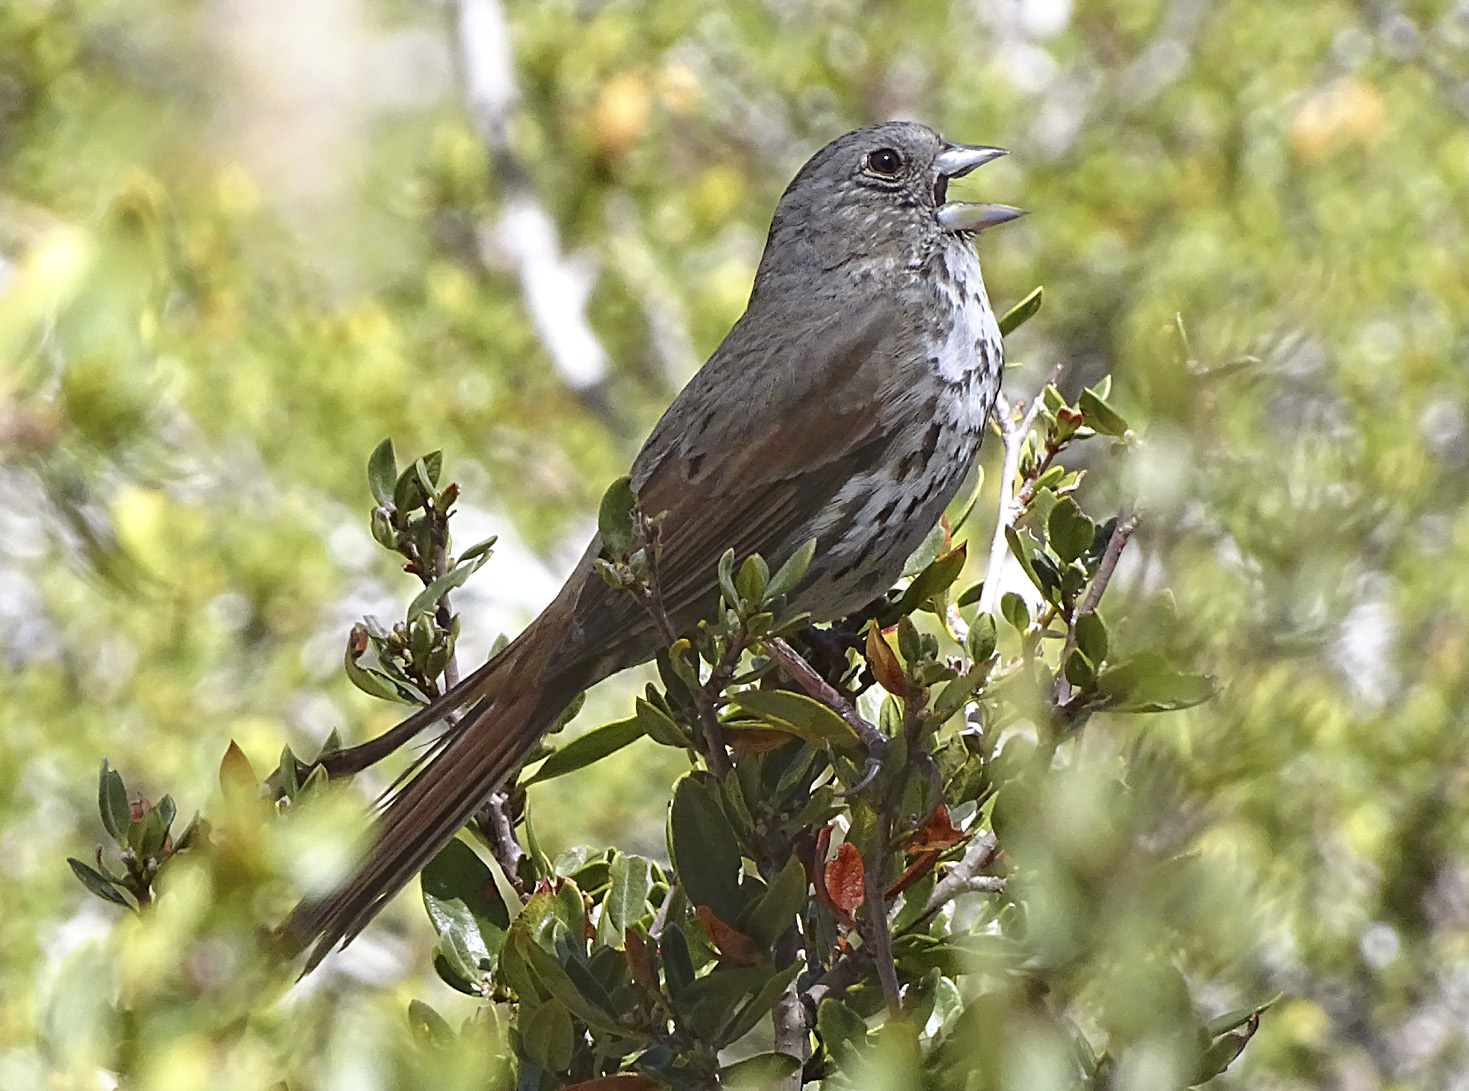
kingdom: Animalia
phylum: Chordata
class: Aves
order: Passeriformes
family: Passerellidae
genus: Passerella
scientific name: Passerella iliaca
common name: Fox sparrow
